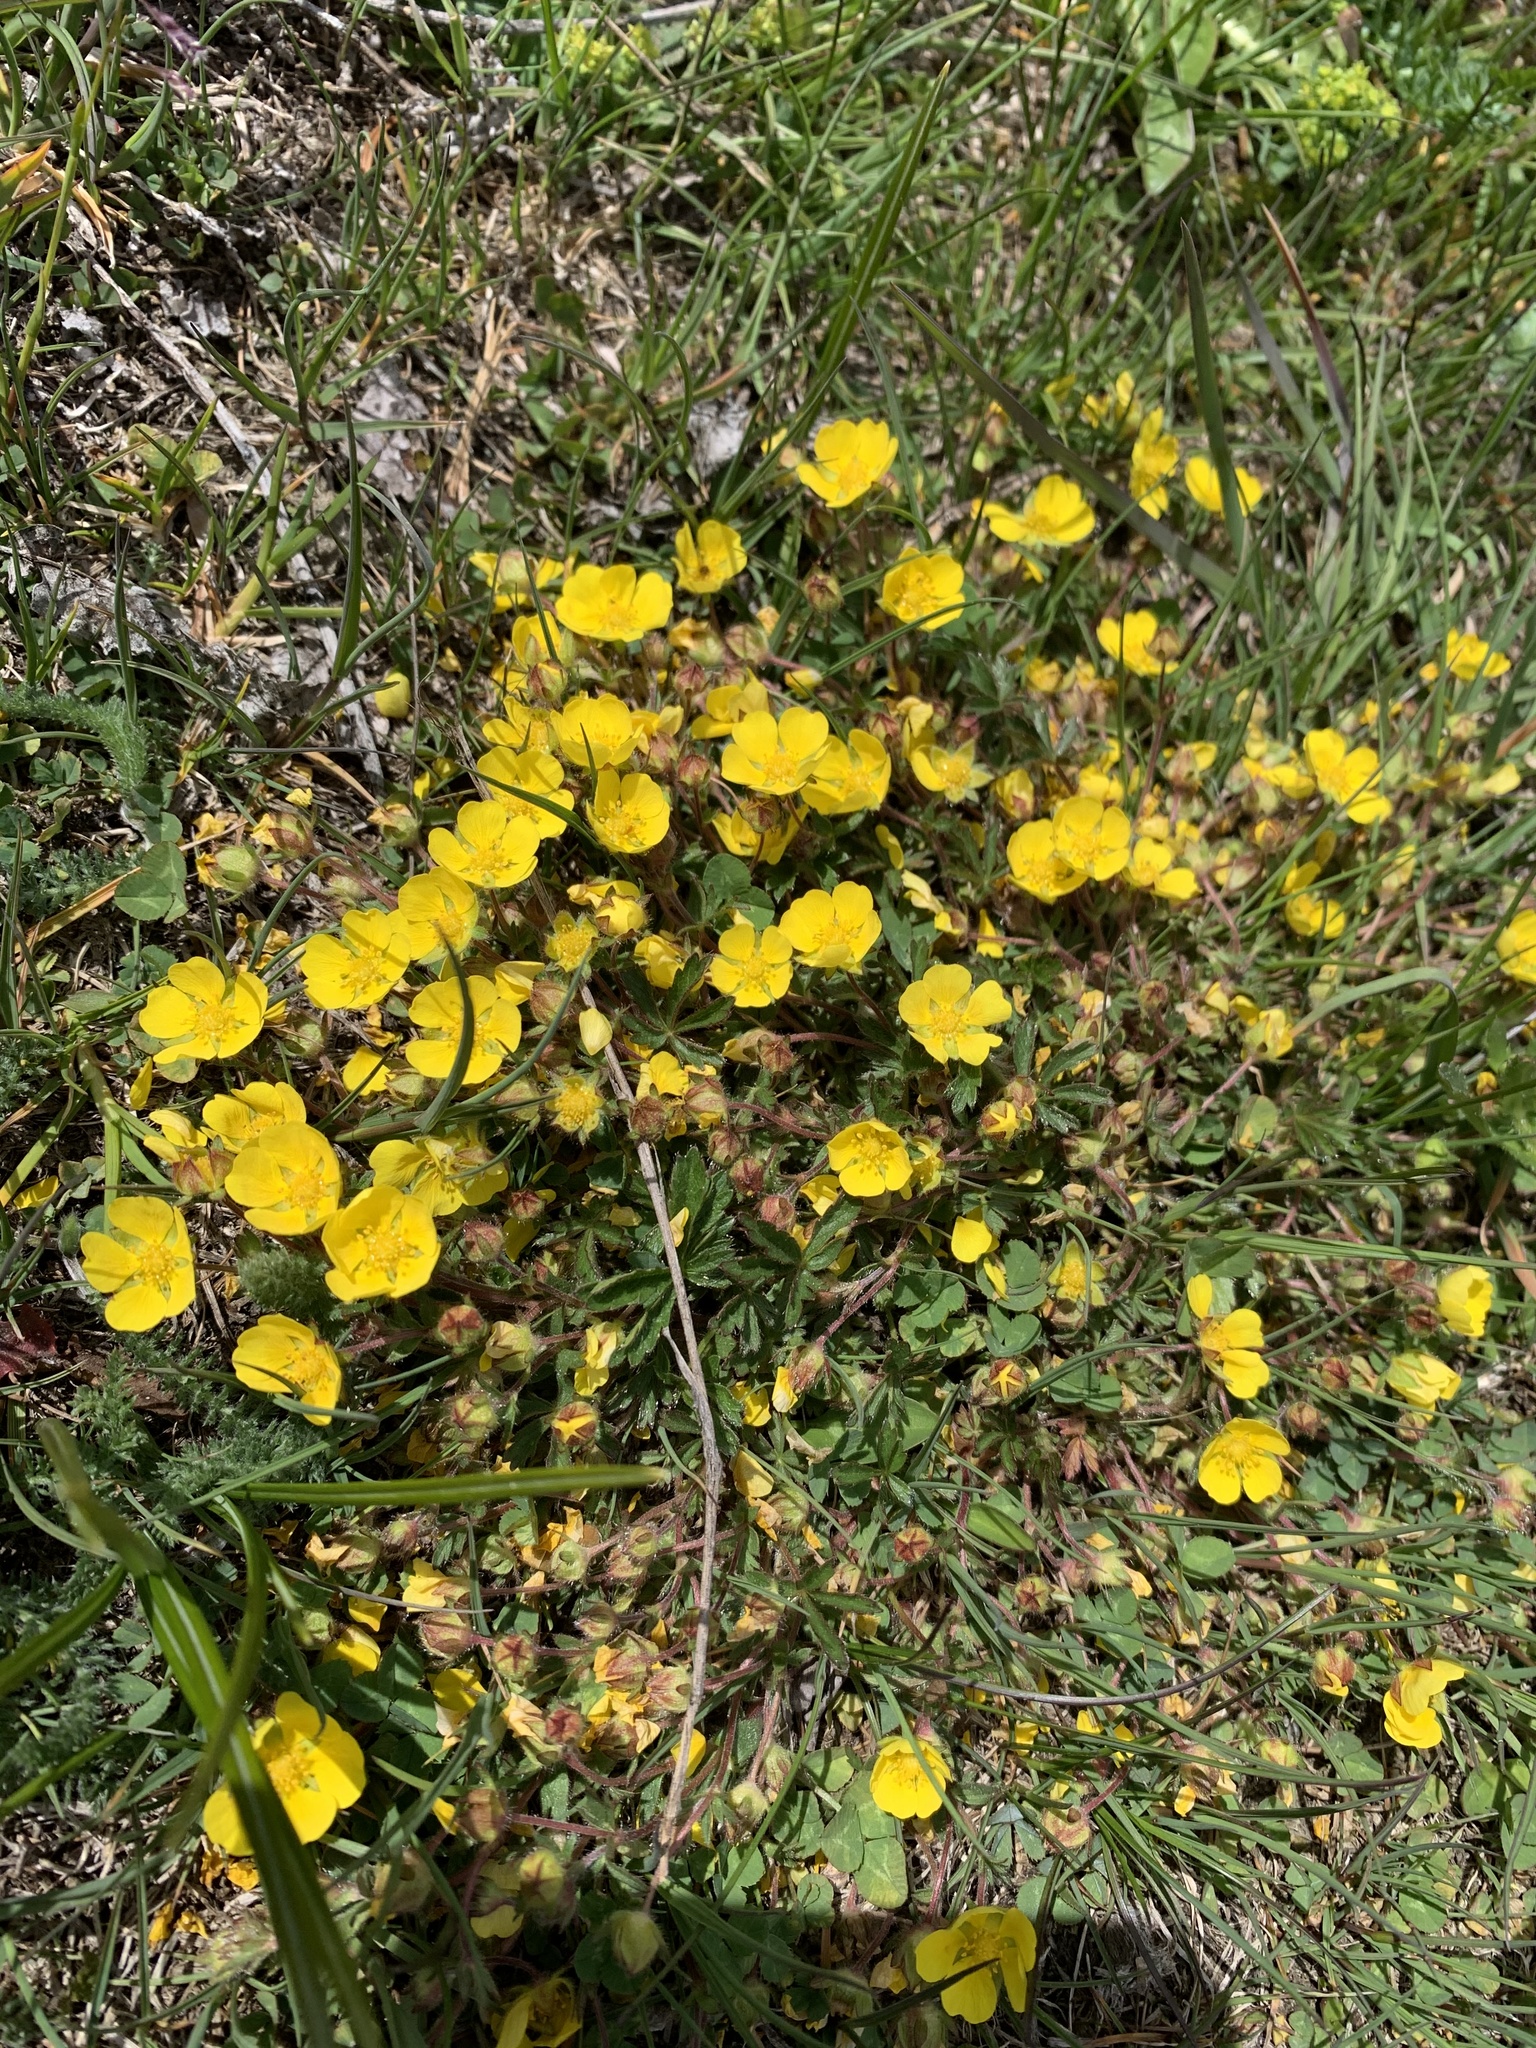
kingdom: Plantae
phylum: Tracheophyta
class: Magnoliopsida
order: Rosales
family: Rosaceae
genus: Potentilla
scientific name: Potentilla verna
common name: Spring cinquefoil
